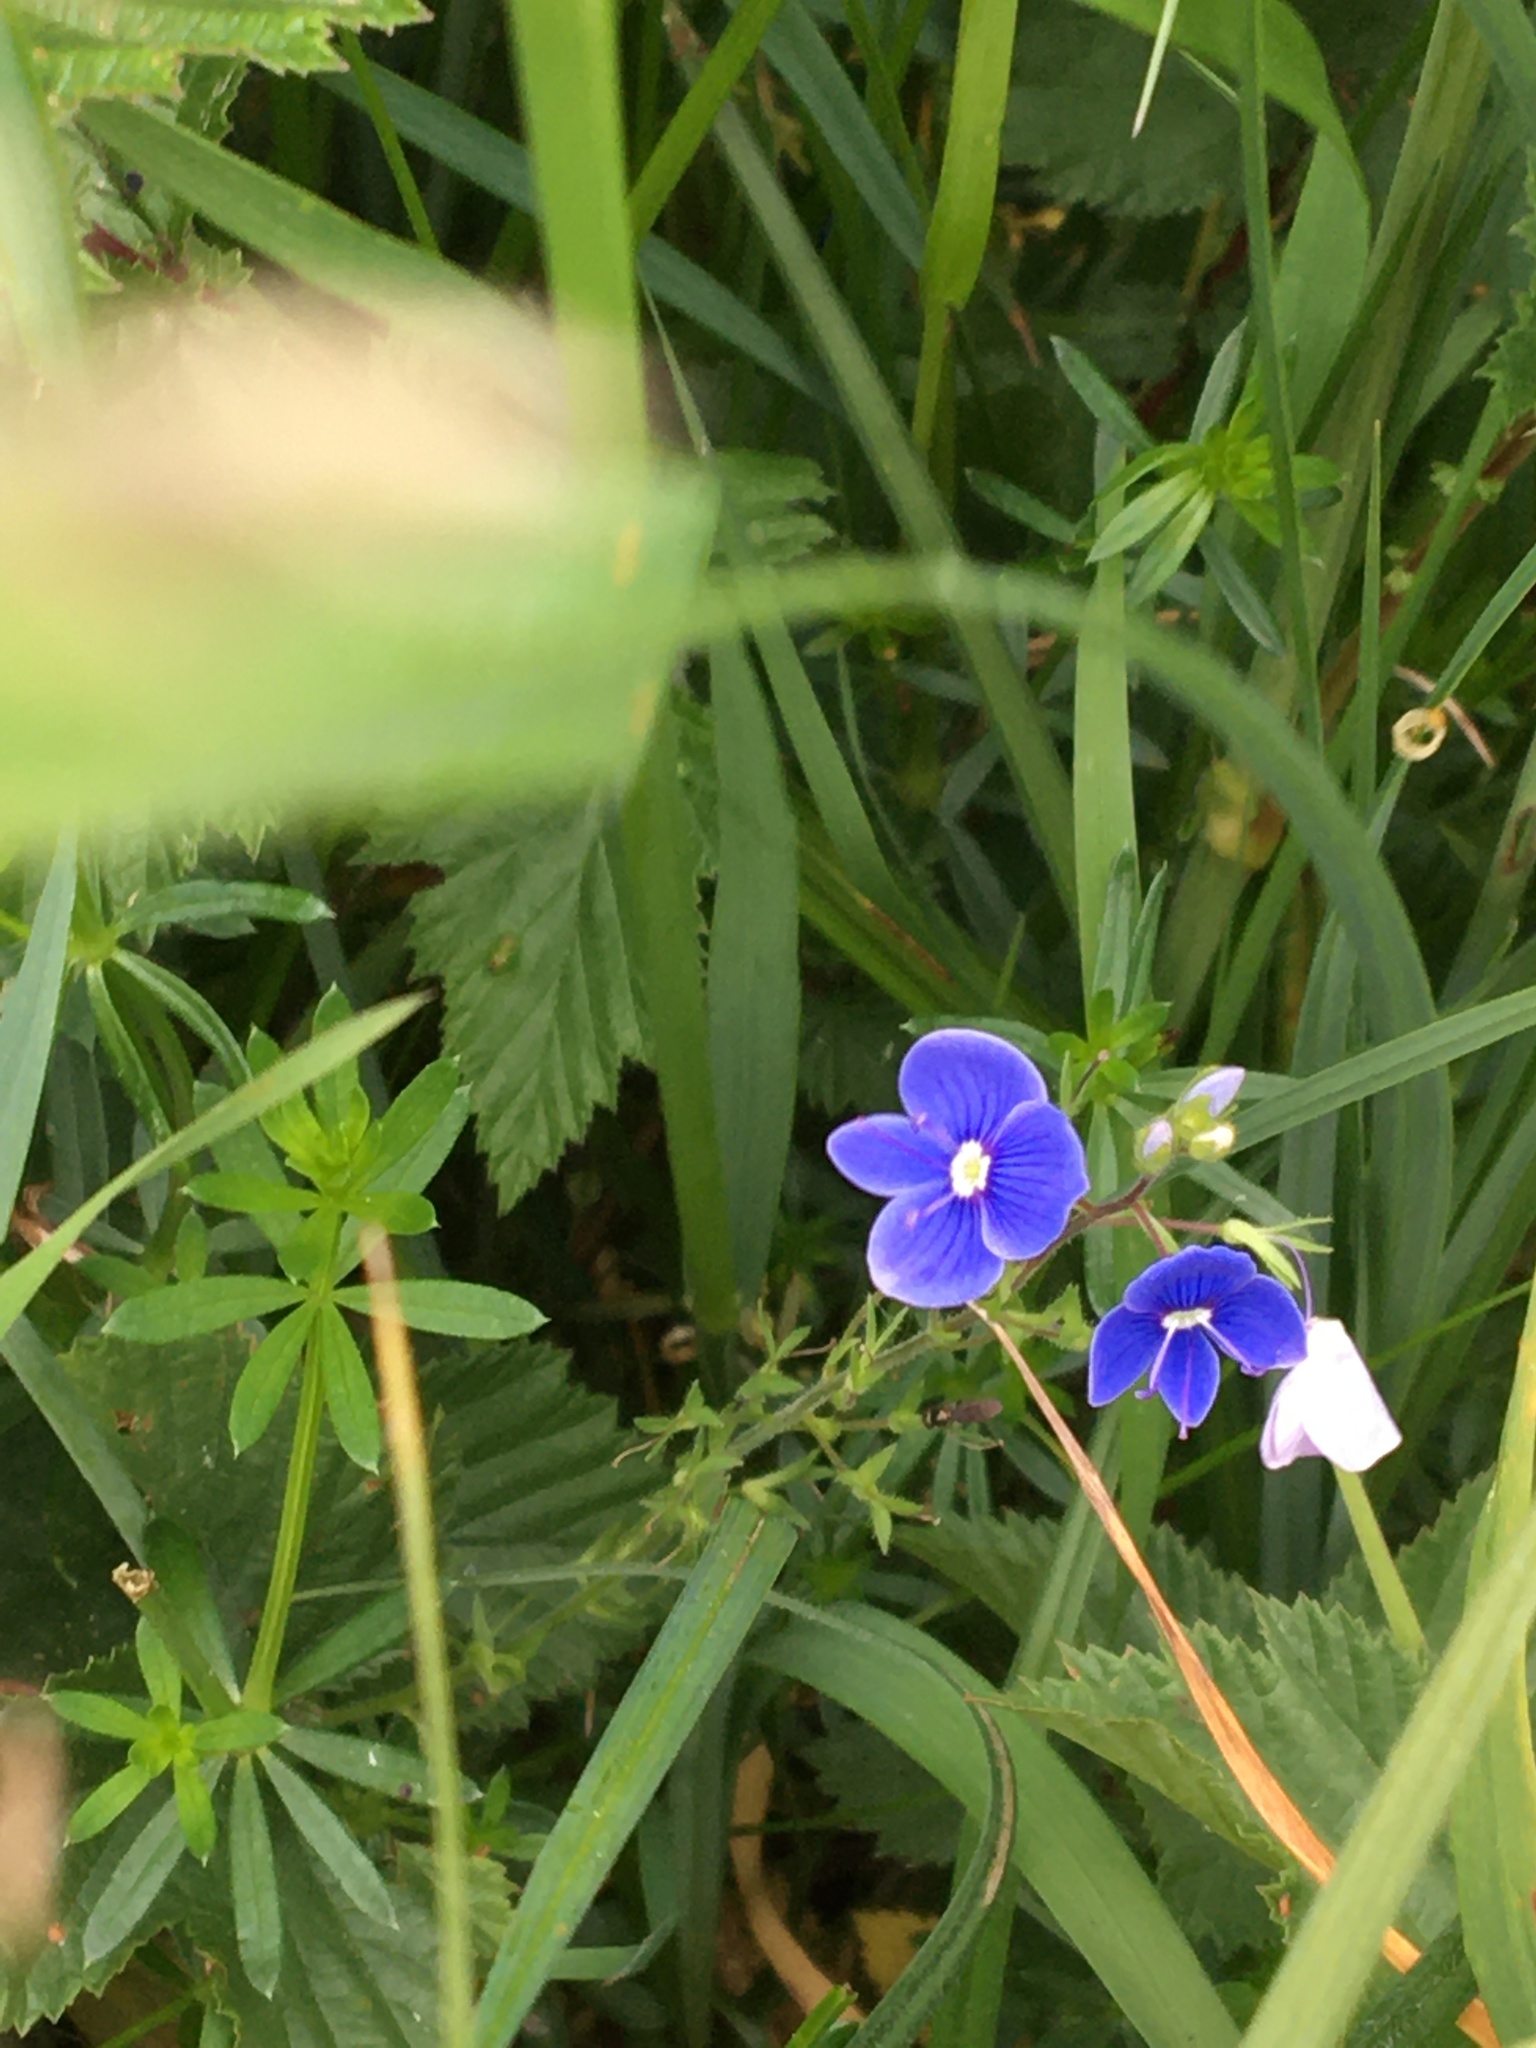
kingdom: Plantae
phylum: Tracheophyta
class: Magnoliopsida
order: Lamiales
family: Plantaginaceae
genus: Veronica
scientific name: Veronica chamaedrys
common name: Germander speedwell
